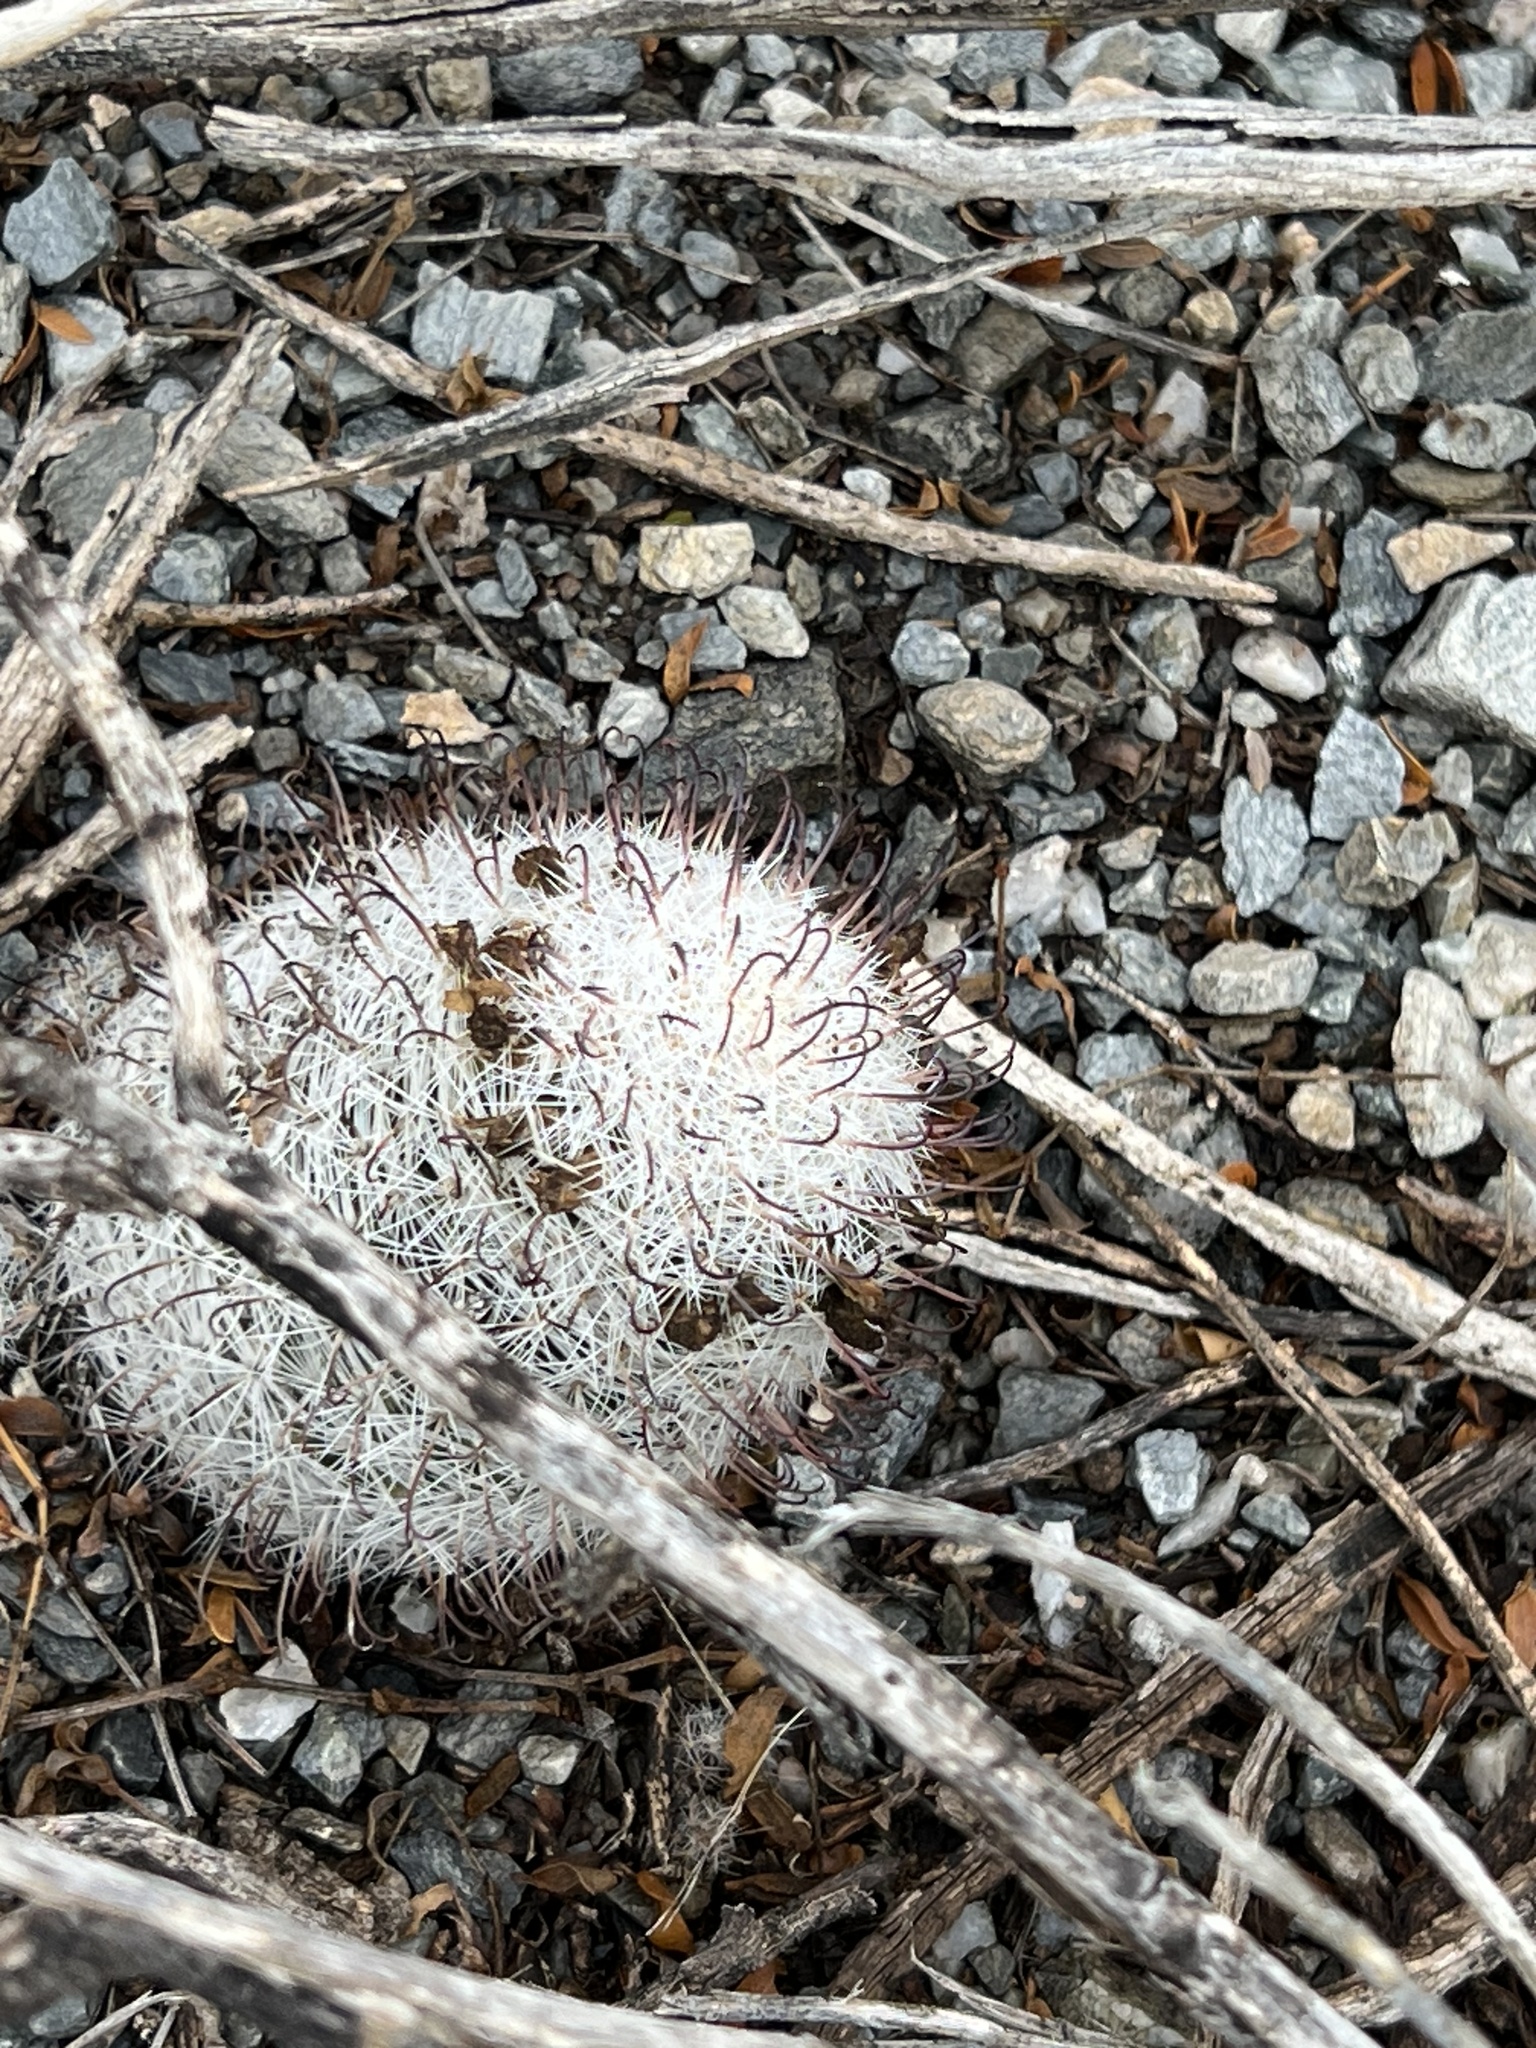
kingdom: Plantae
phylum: Tracheophyta
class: Magnoliopsida
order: Caryophyllales
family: Cactaceae
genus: Cochemiea
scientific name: Cochemiea grahamii
